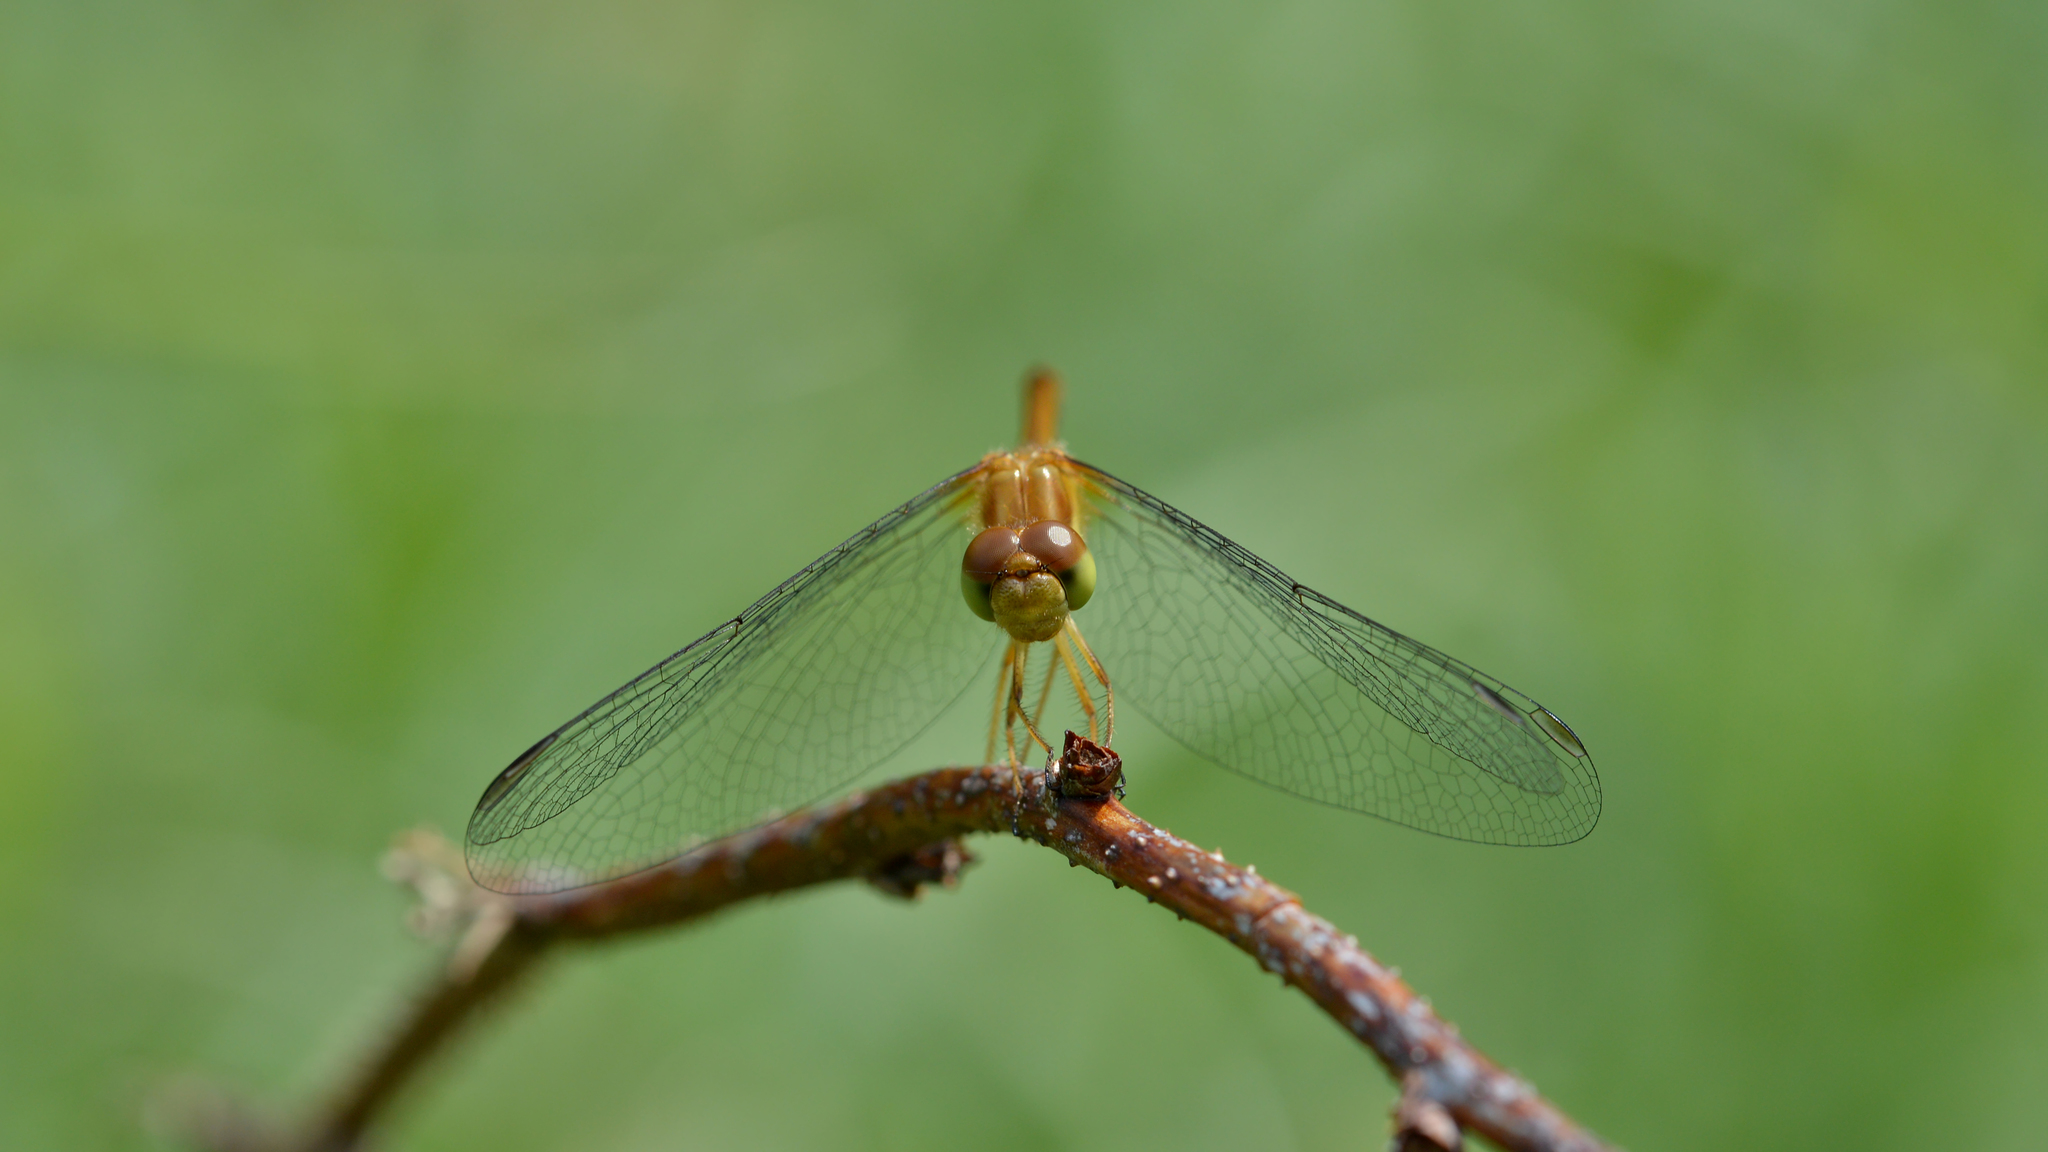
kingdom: Animalia
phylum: Arthropoda
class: Insecta
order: Odonata
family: Libellulidae
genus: Sympetrum
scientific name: Sympetrum vicinum
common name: Autumn meadowhawk
